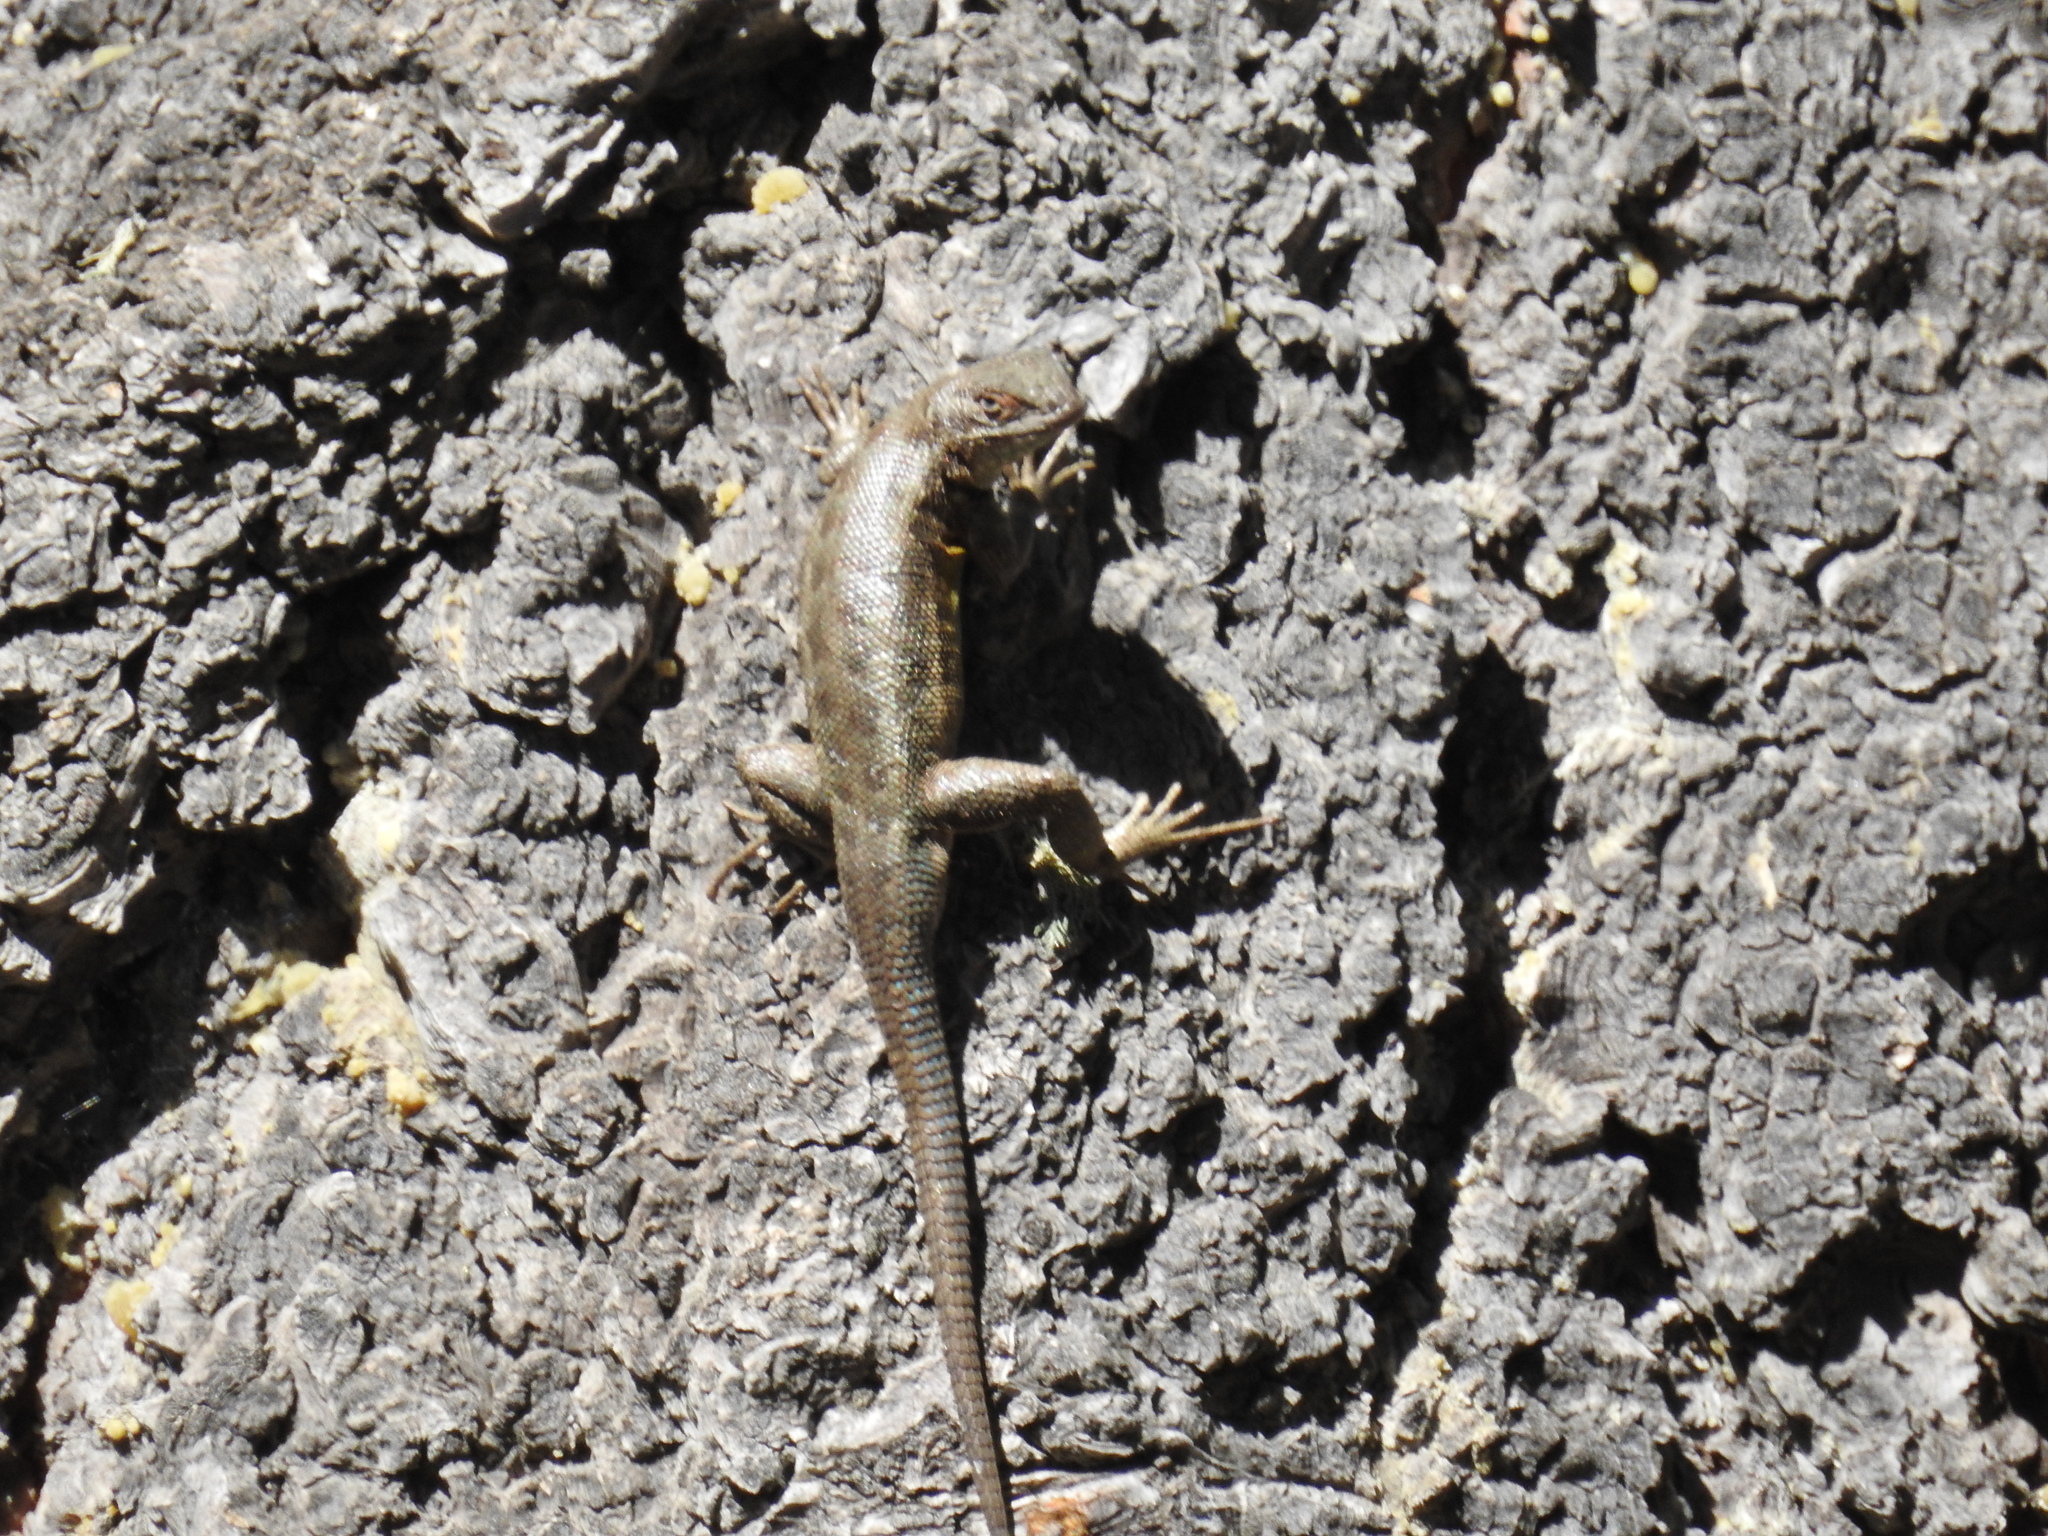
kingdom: Animalia
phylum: Chordata
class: Squamata
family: Phrynosomatidae
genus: Sceloporus
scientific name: Sceloporus graciosus
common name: Sagebrush lizard
